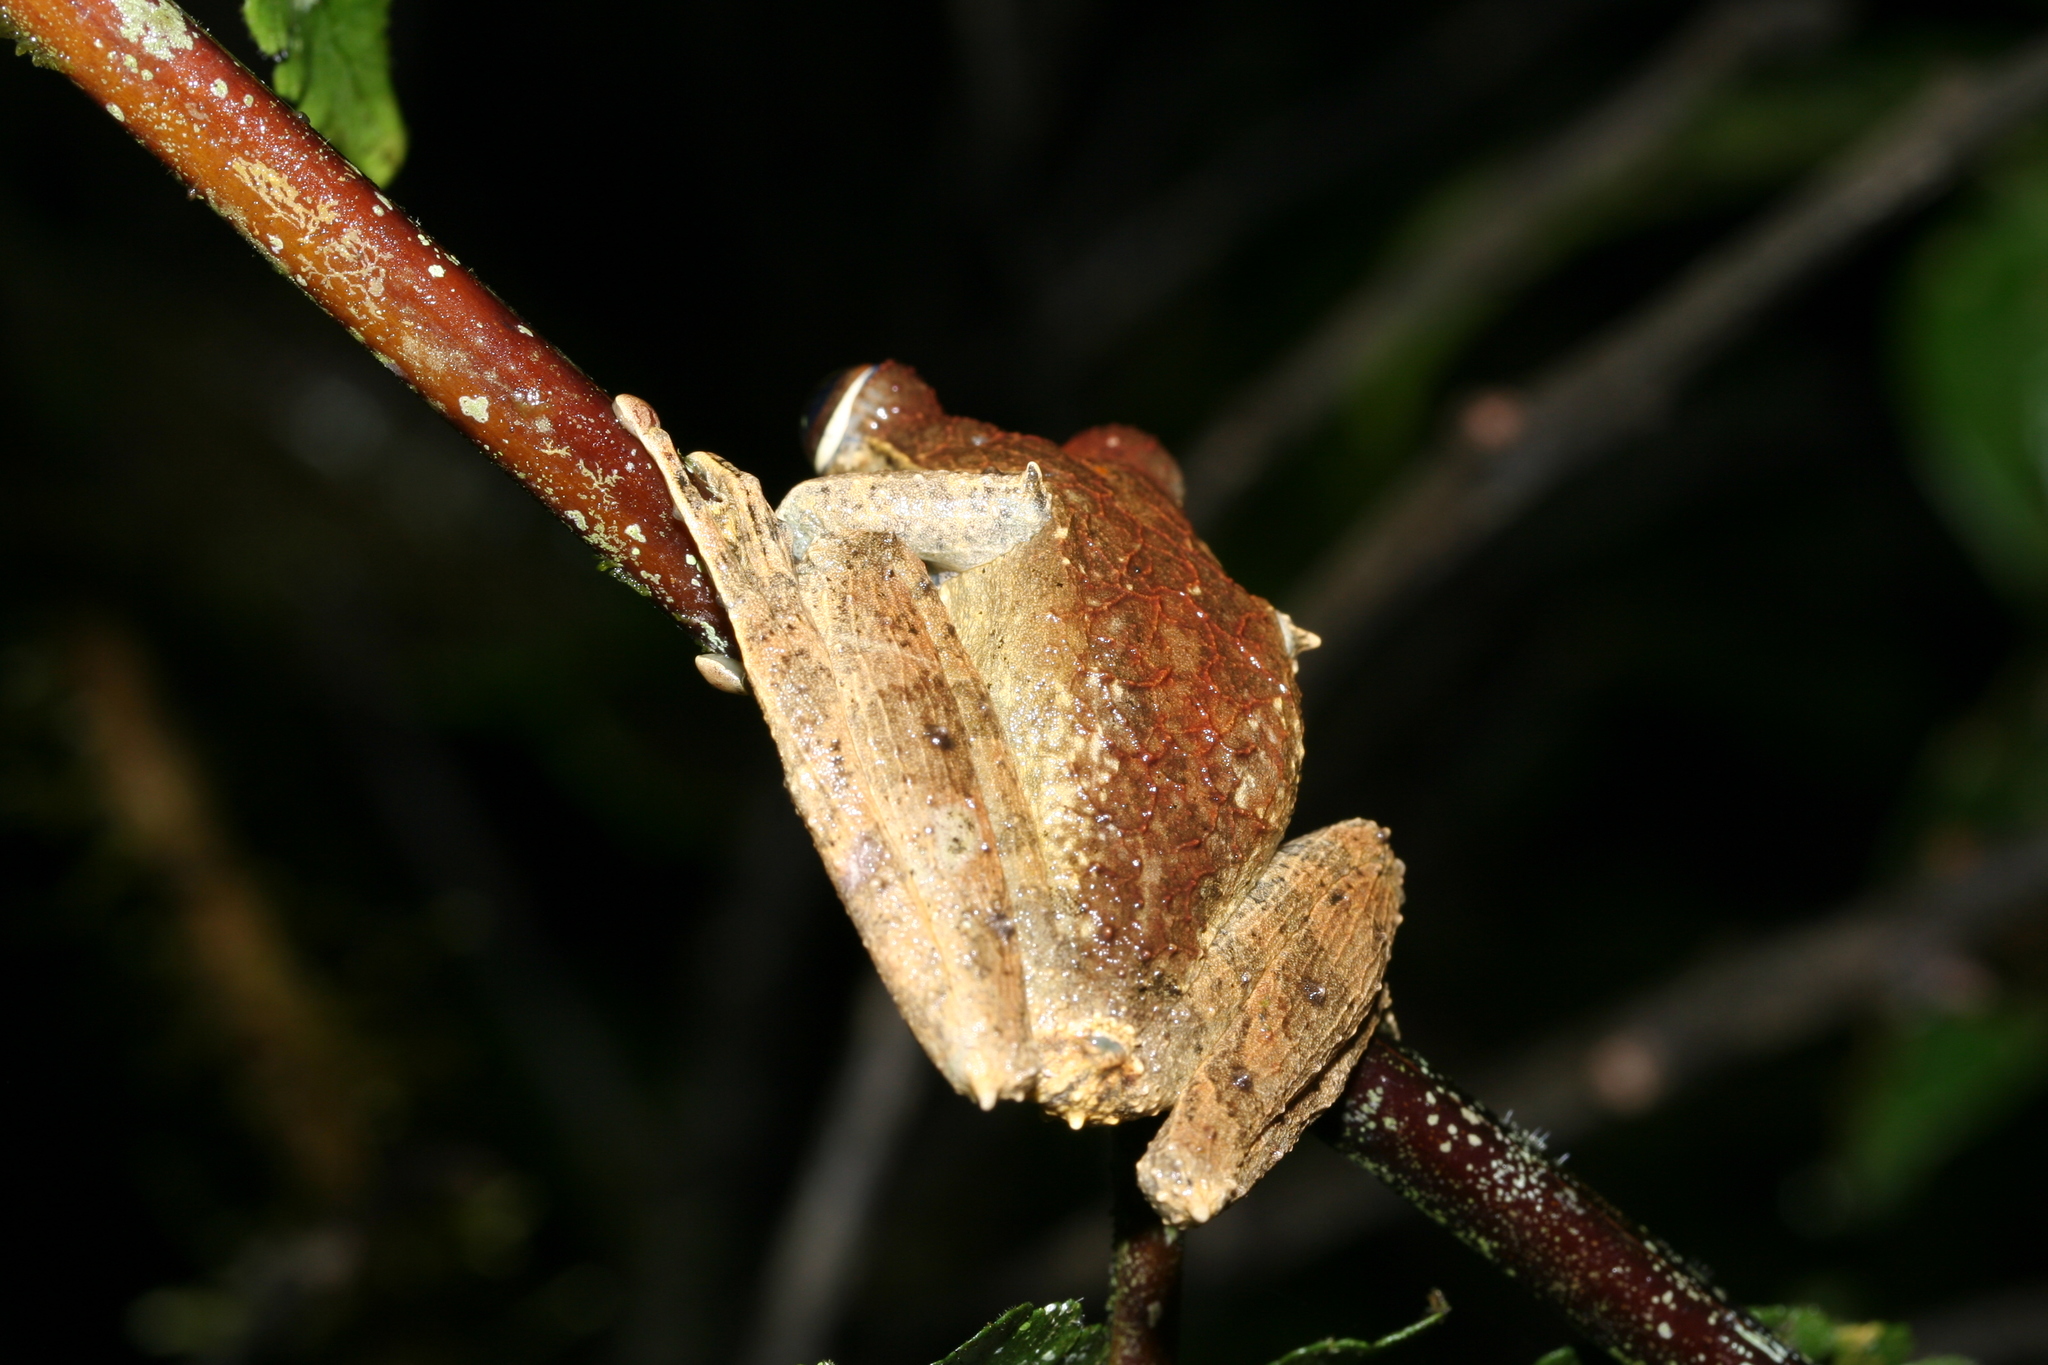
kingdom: Animalia
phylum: Chordata
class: Amphibia
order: Anura
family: Mantellidae
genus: Boophis
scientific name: Boophis madagascariensis
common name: Madagascar bright-eyed frog
